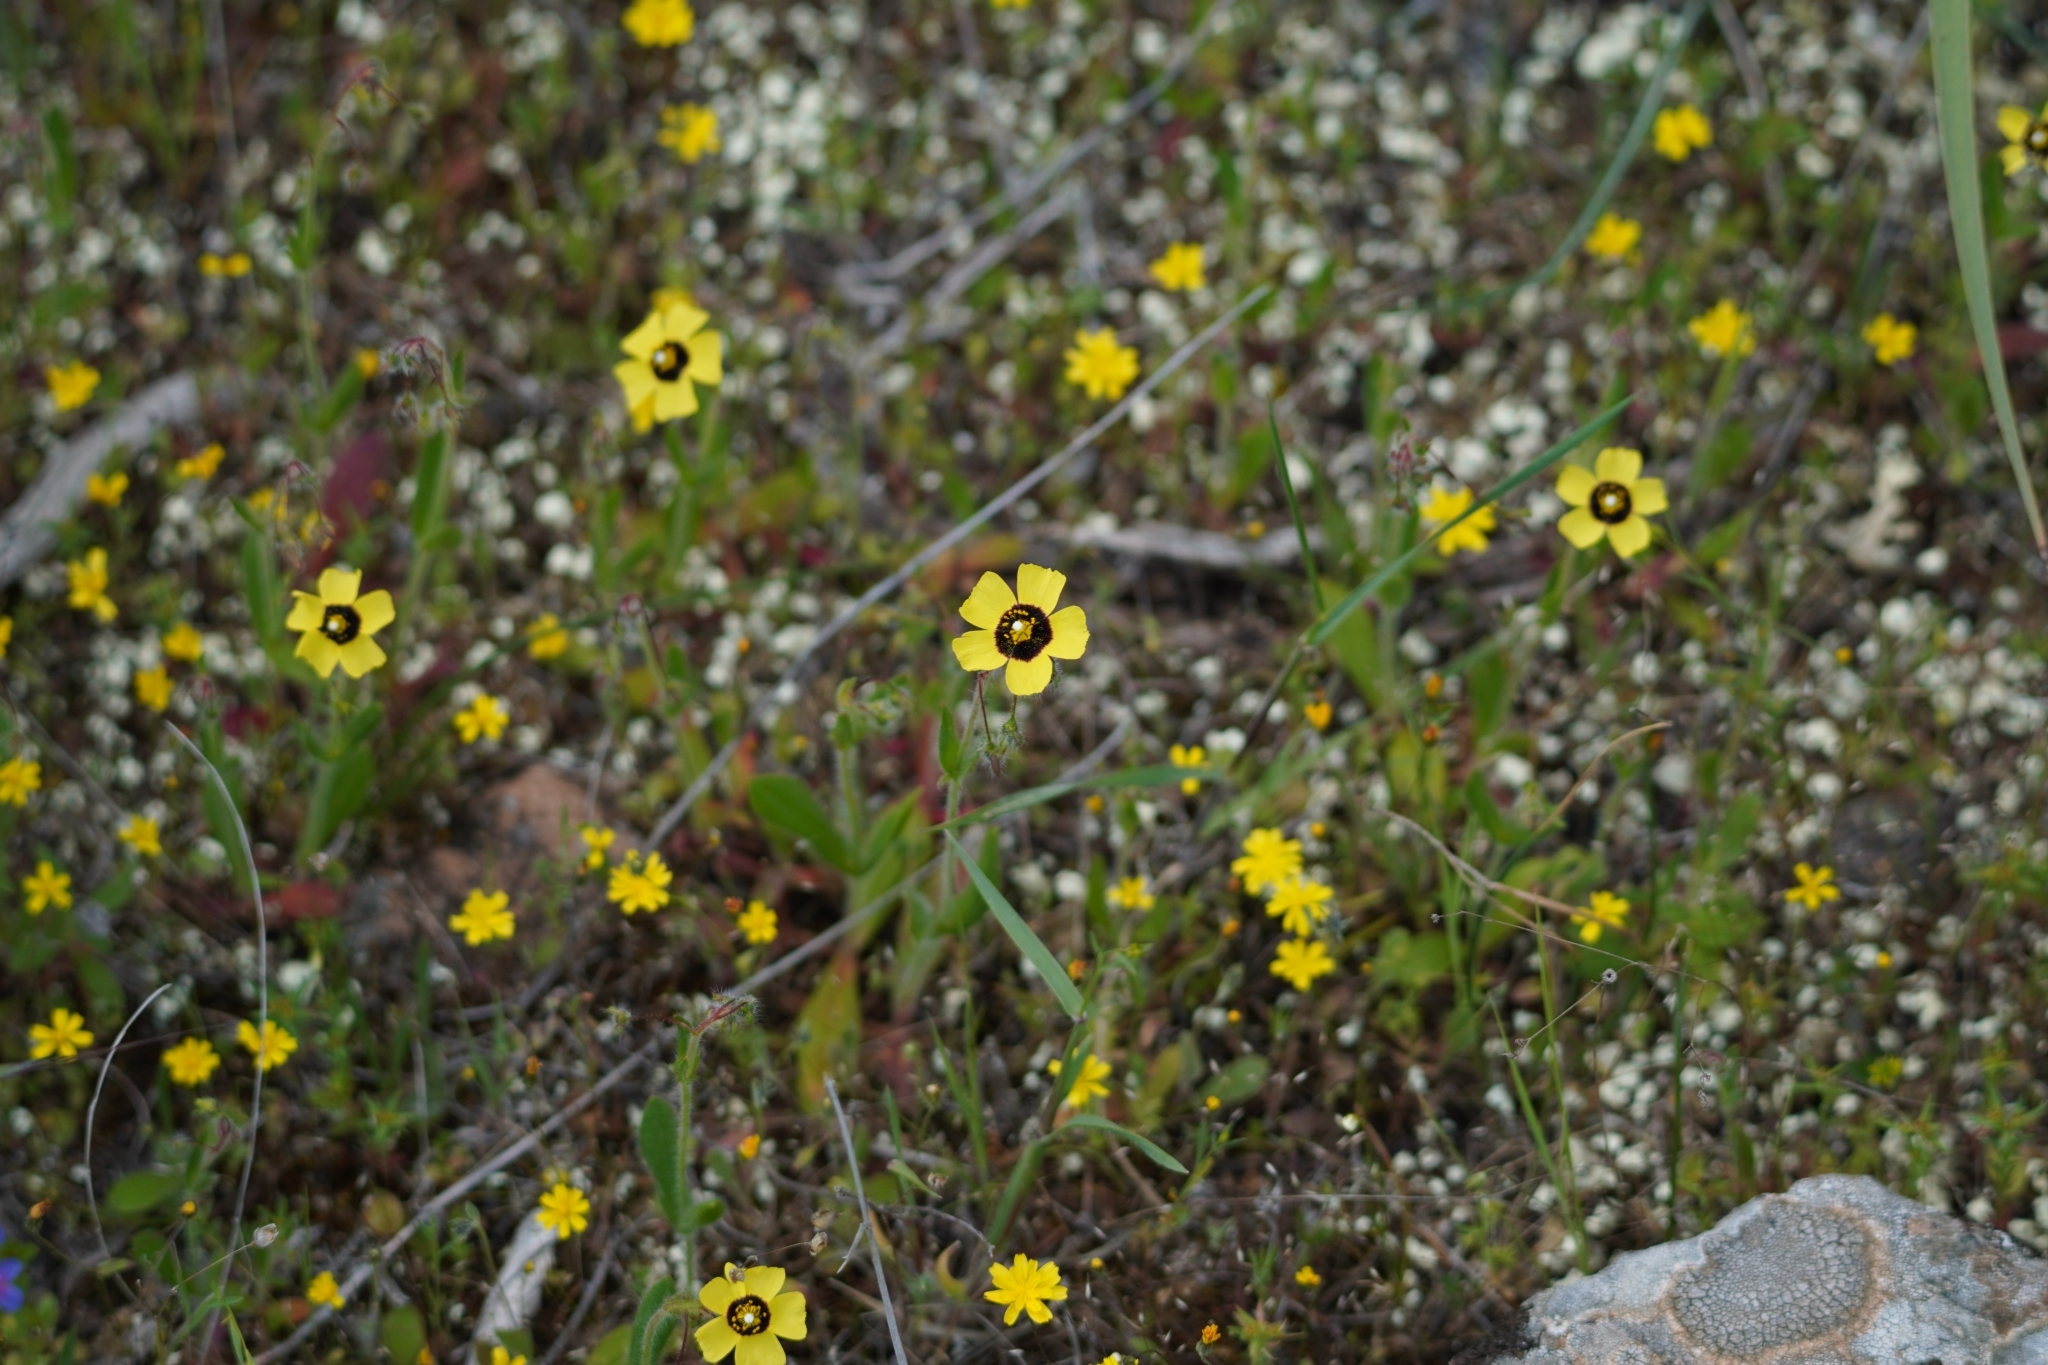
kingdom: Plantae
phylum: Tracheophyta
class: Magnoliopsida
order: Malvales
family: Cistaceae
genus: Tuberaria
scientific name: Tuberaria guttata
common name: Spotted rock-rose
